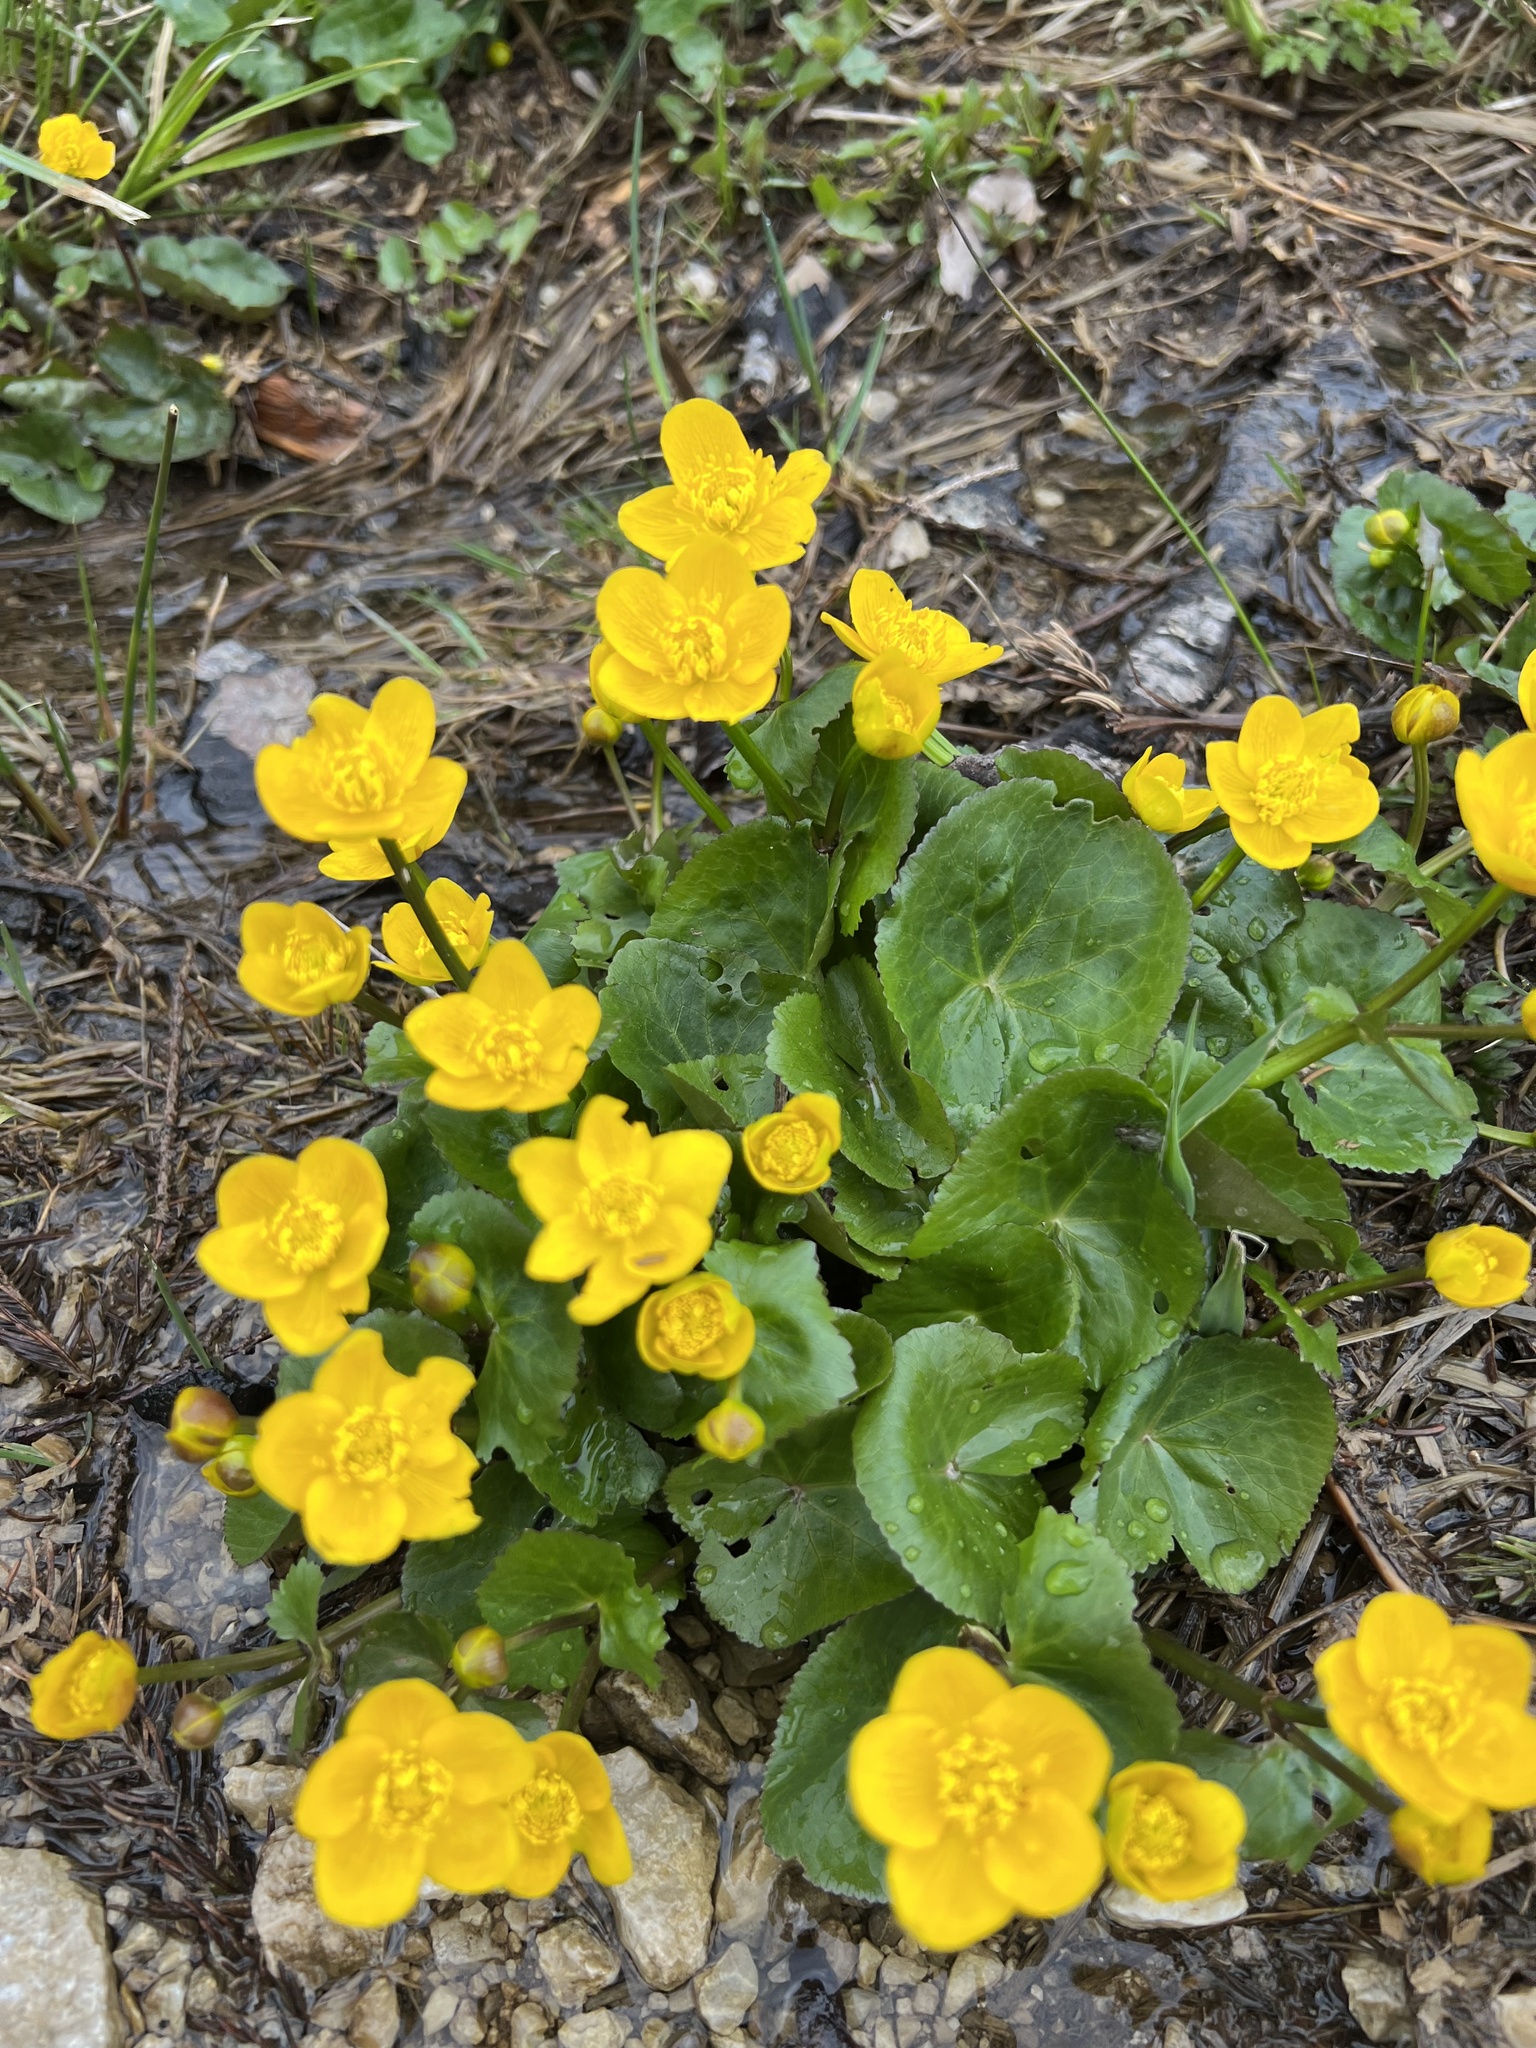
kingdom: Plantae
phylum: Tracheophyta
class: Magnoliopsida
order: Ranunculales
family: Ranunculaceae
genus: Caltha
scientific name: Caltha palustris
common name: Marsh marigold
